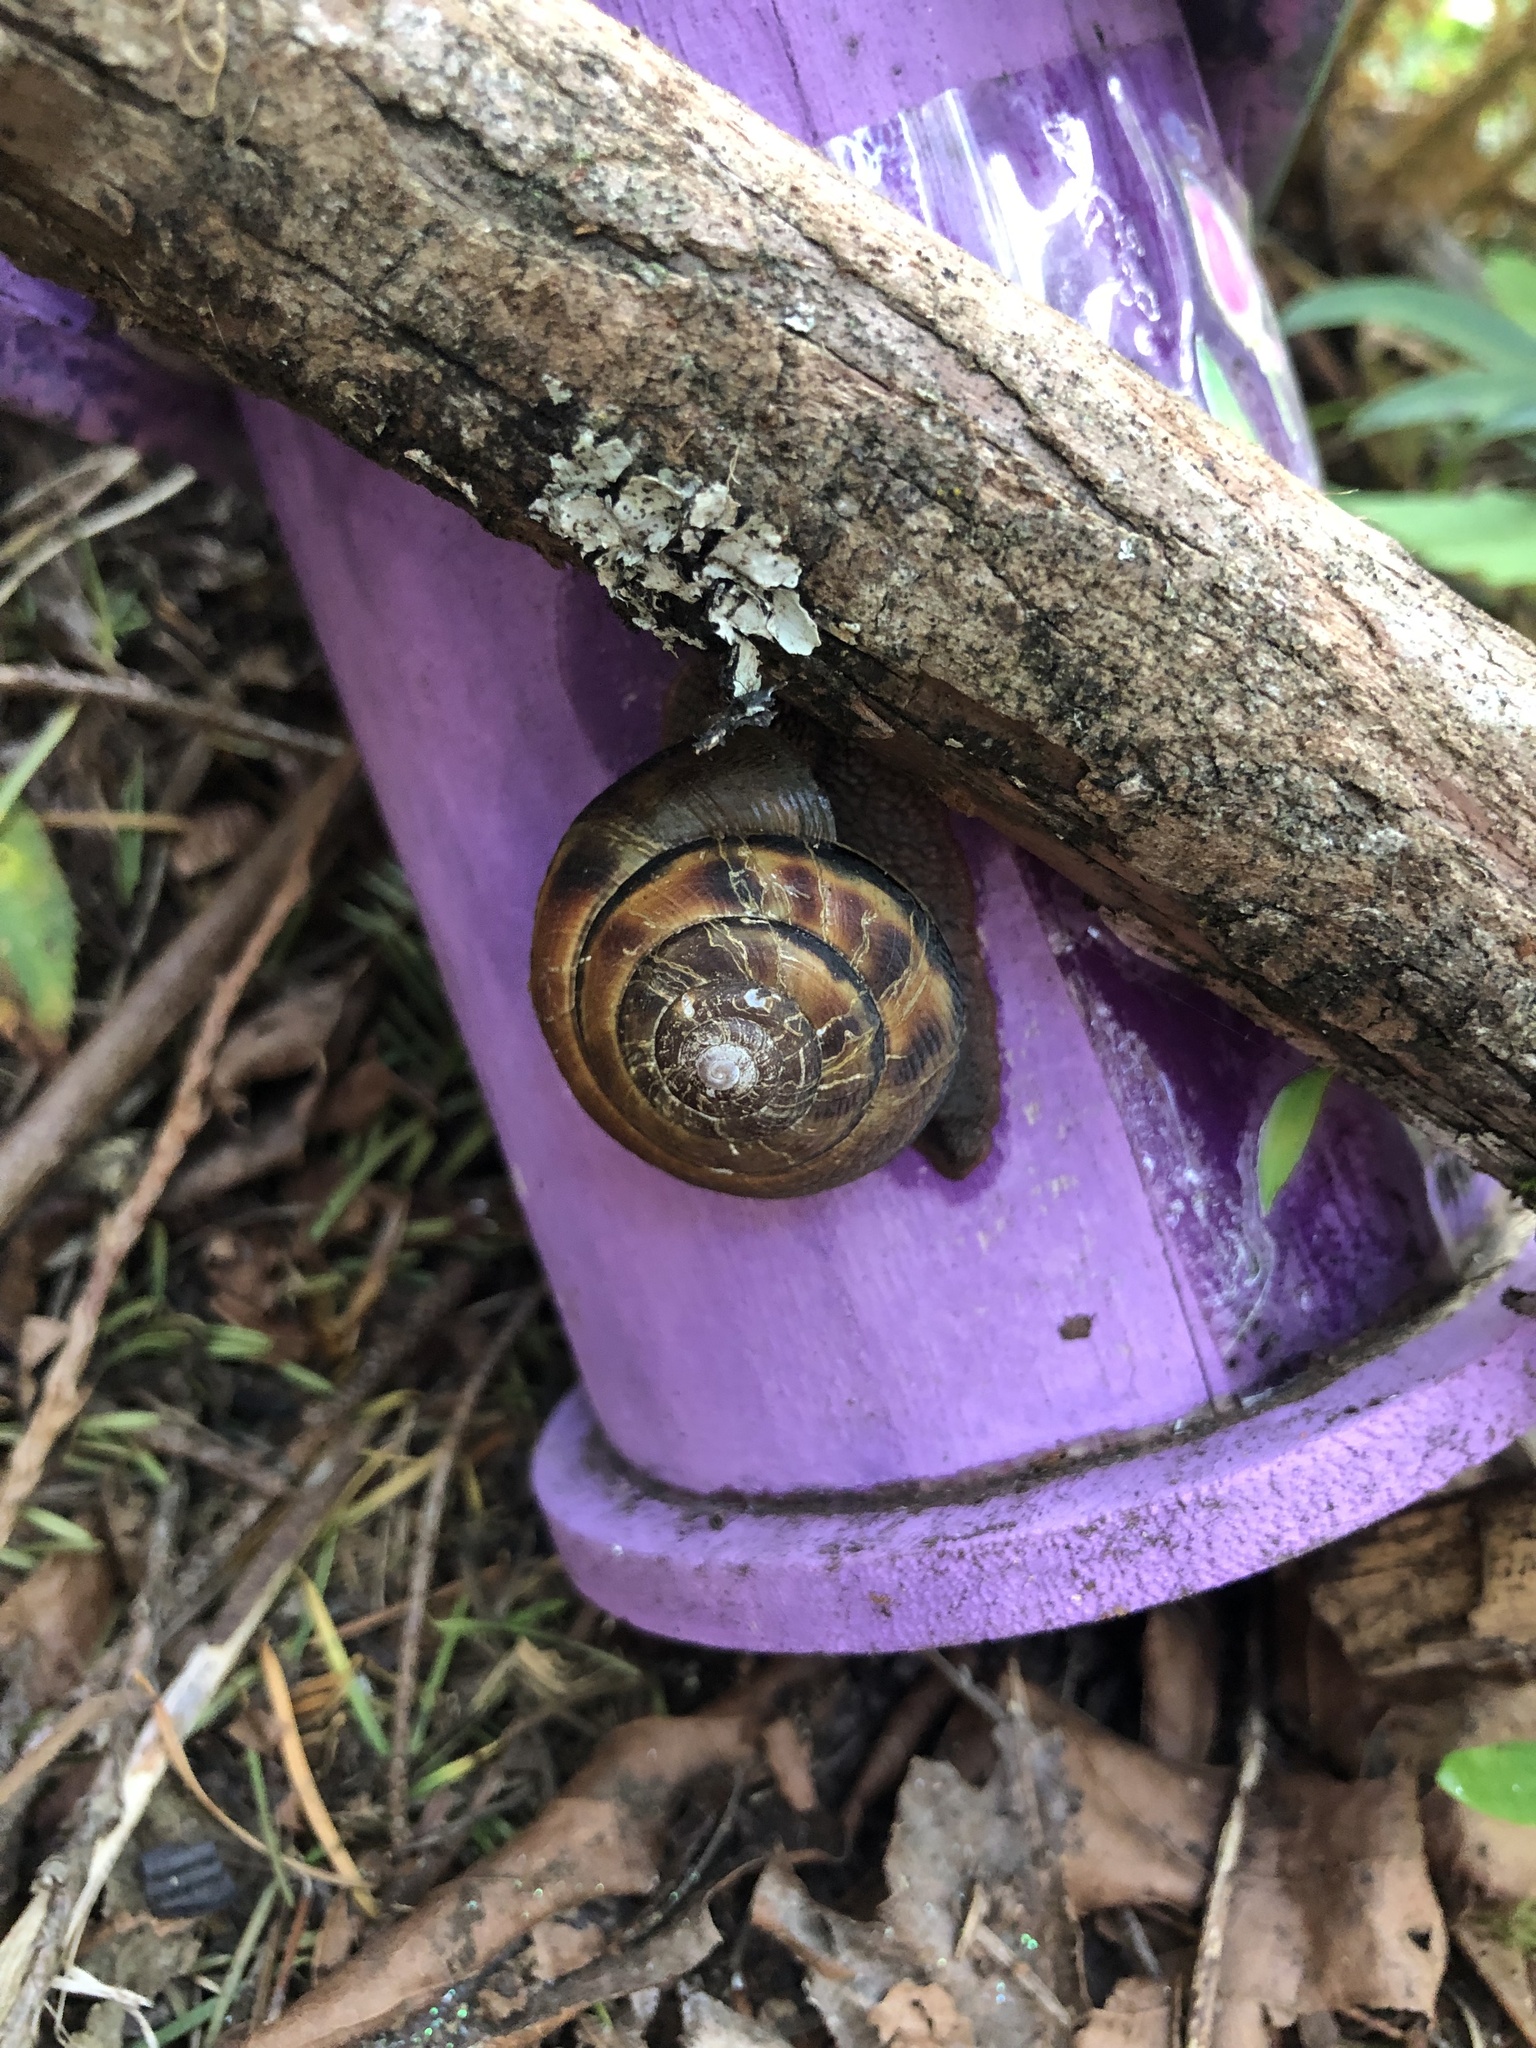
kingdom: Animalia
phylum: Mollusca
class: Gastropoda
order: Stylommatophora
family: Xanthonychidae
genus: Monadenia
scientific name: Monadenia fidelis
